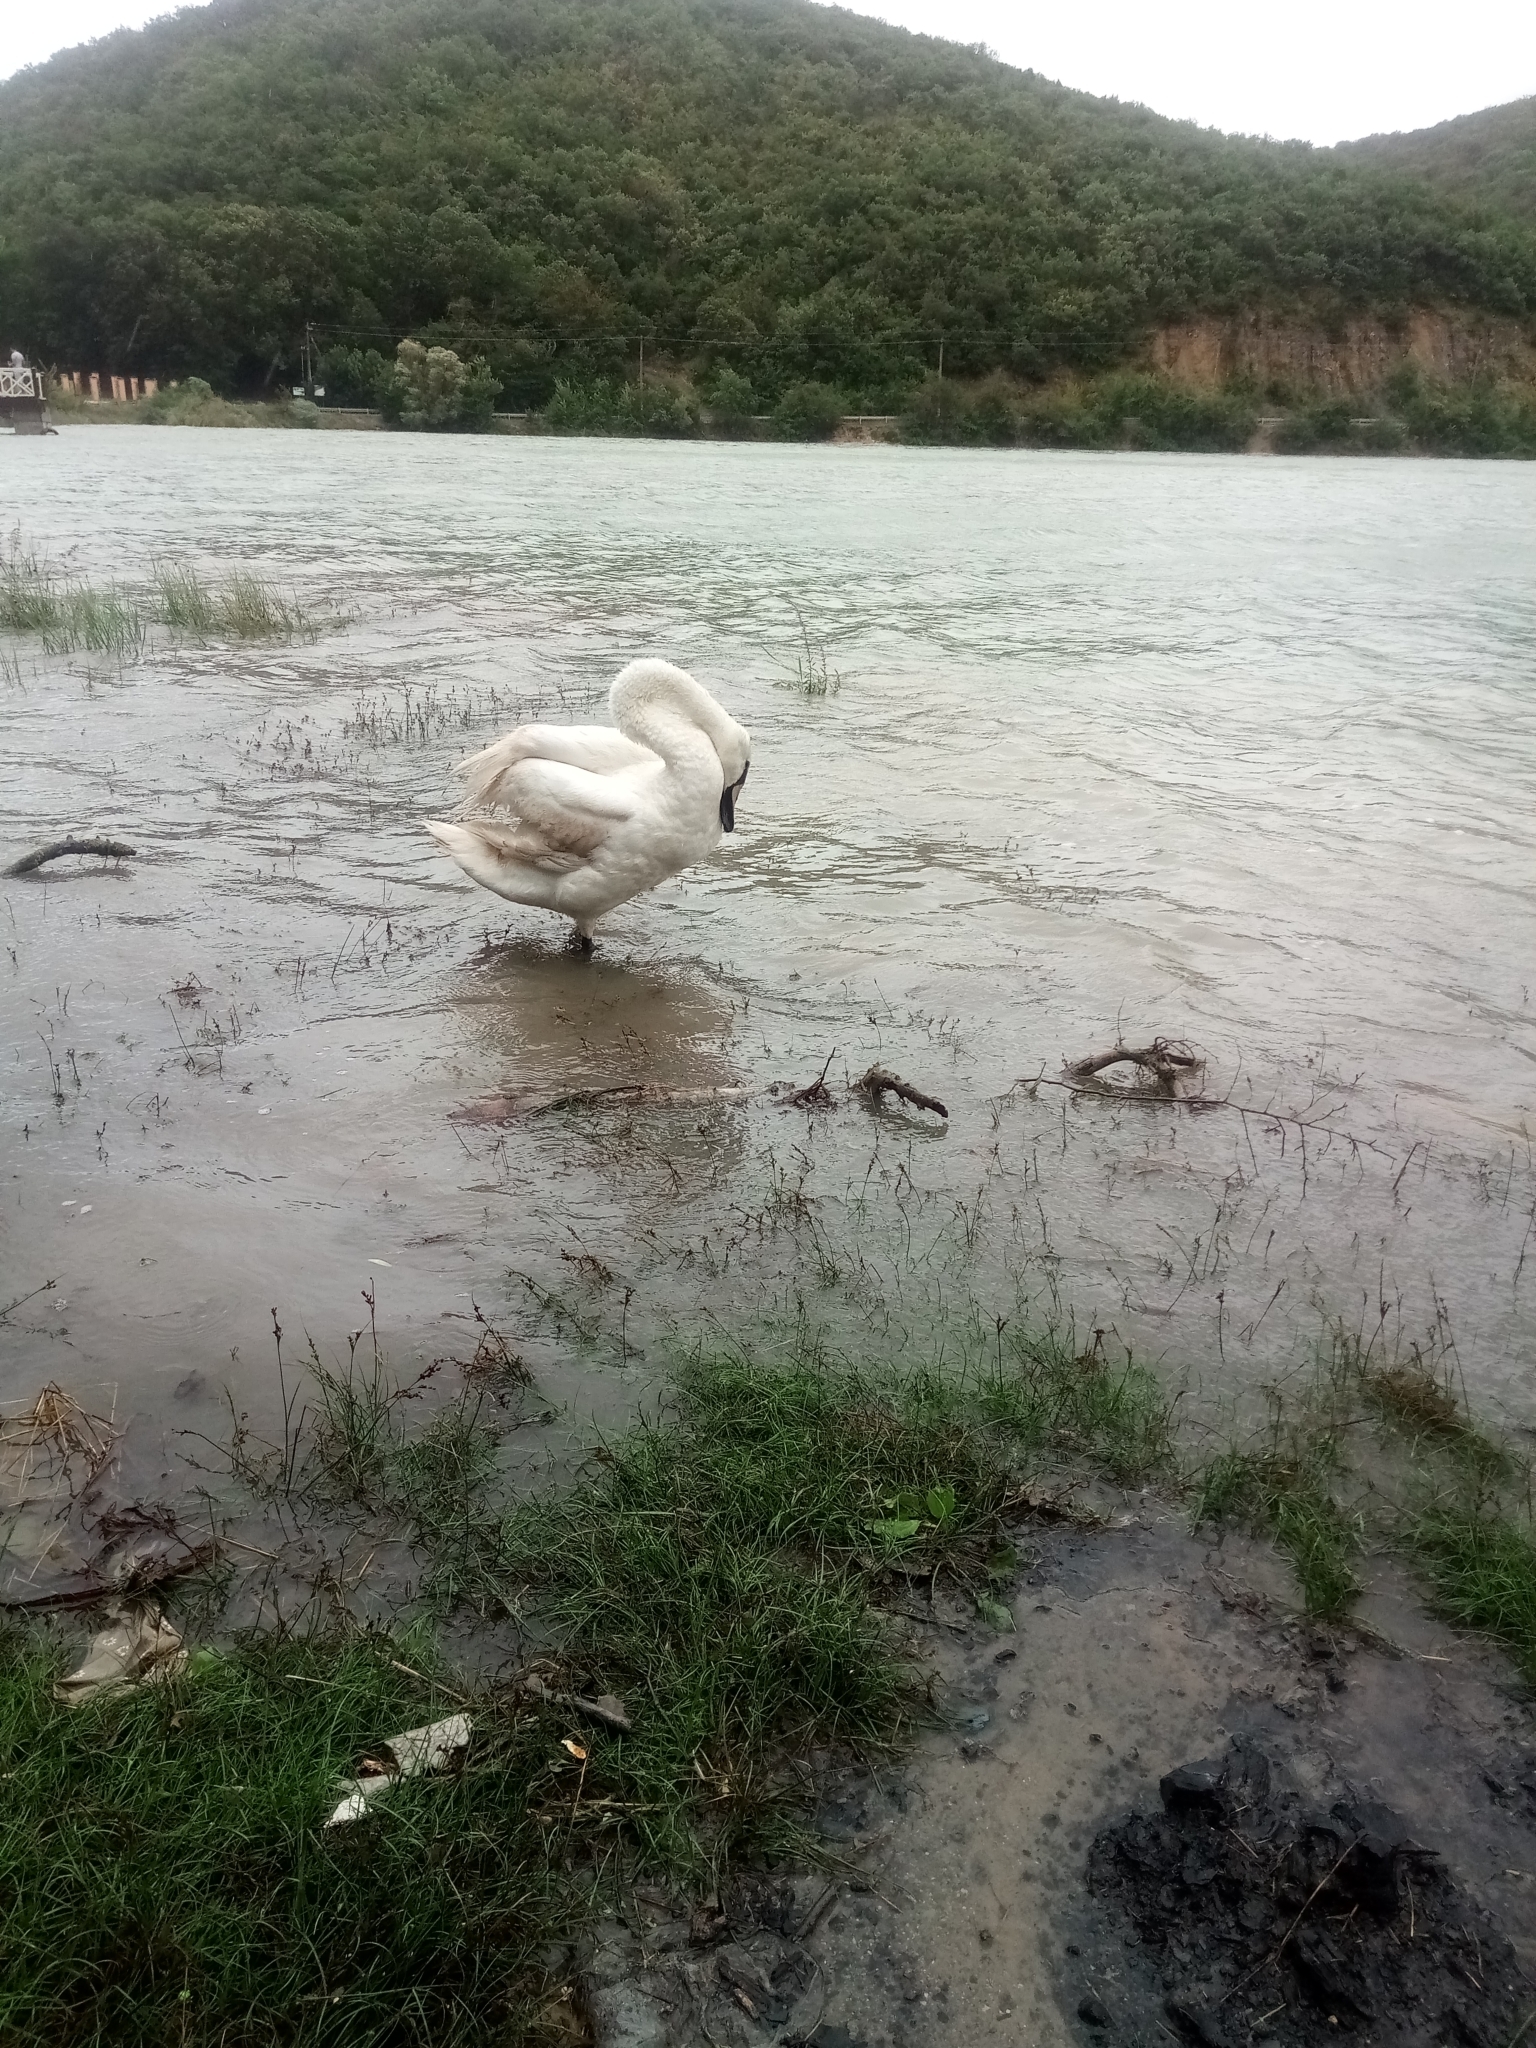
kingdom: Animalia
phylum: Chordata
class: Aves
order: Anseriformes
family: Anatidae
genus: Cygnus
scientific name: Cygnus olor
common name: Mute swan
